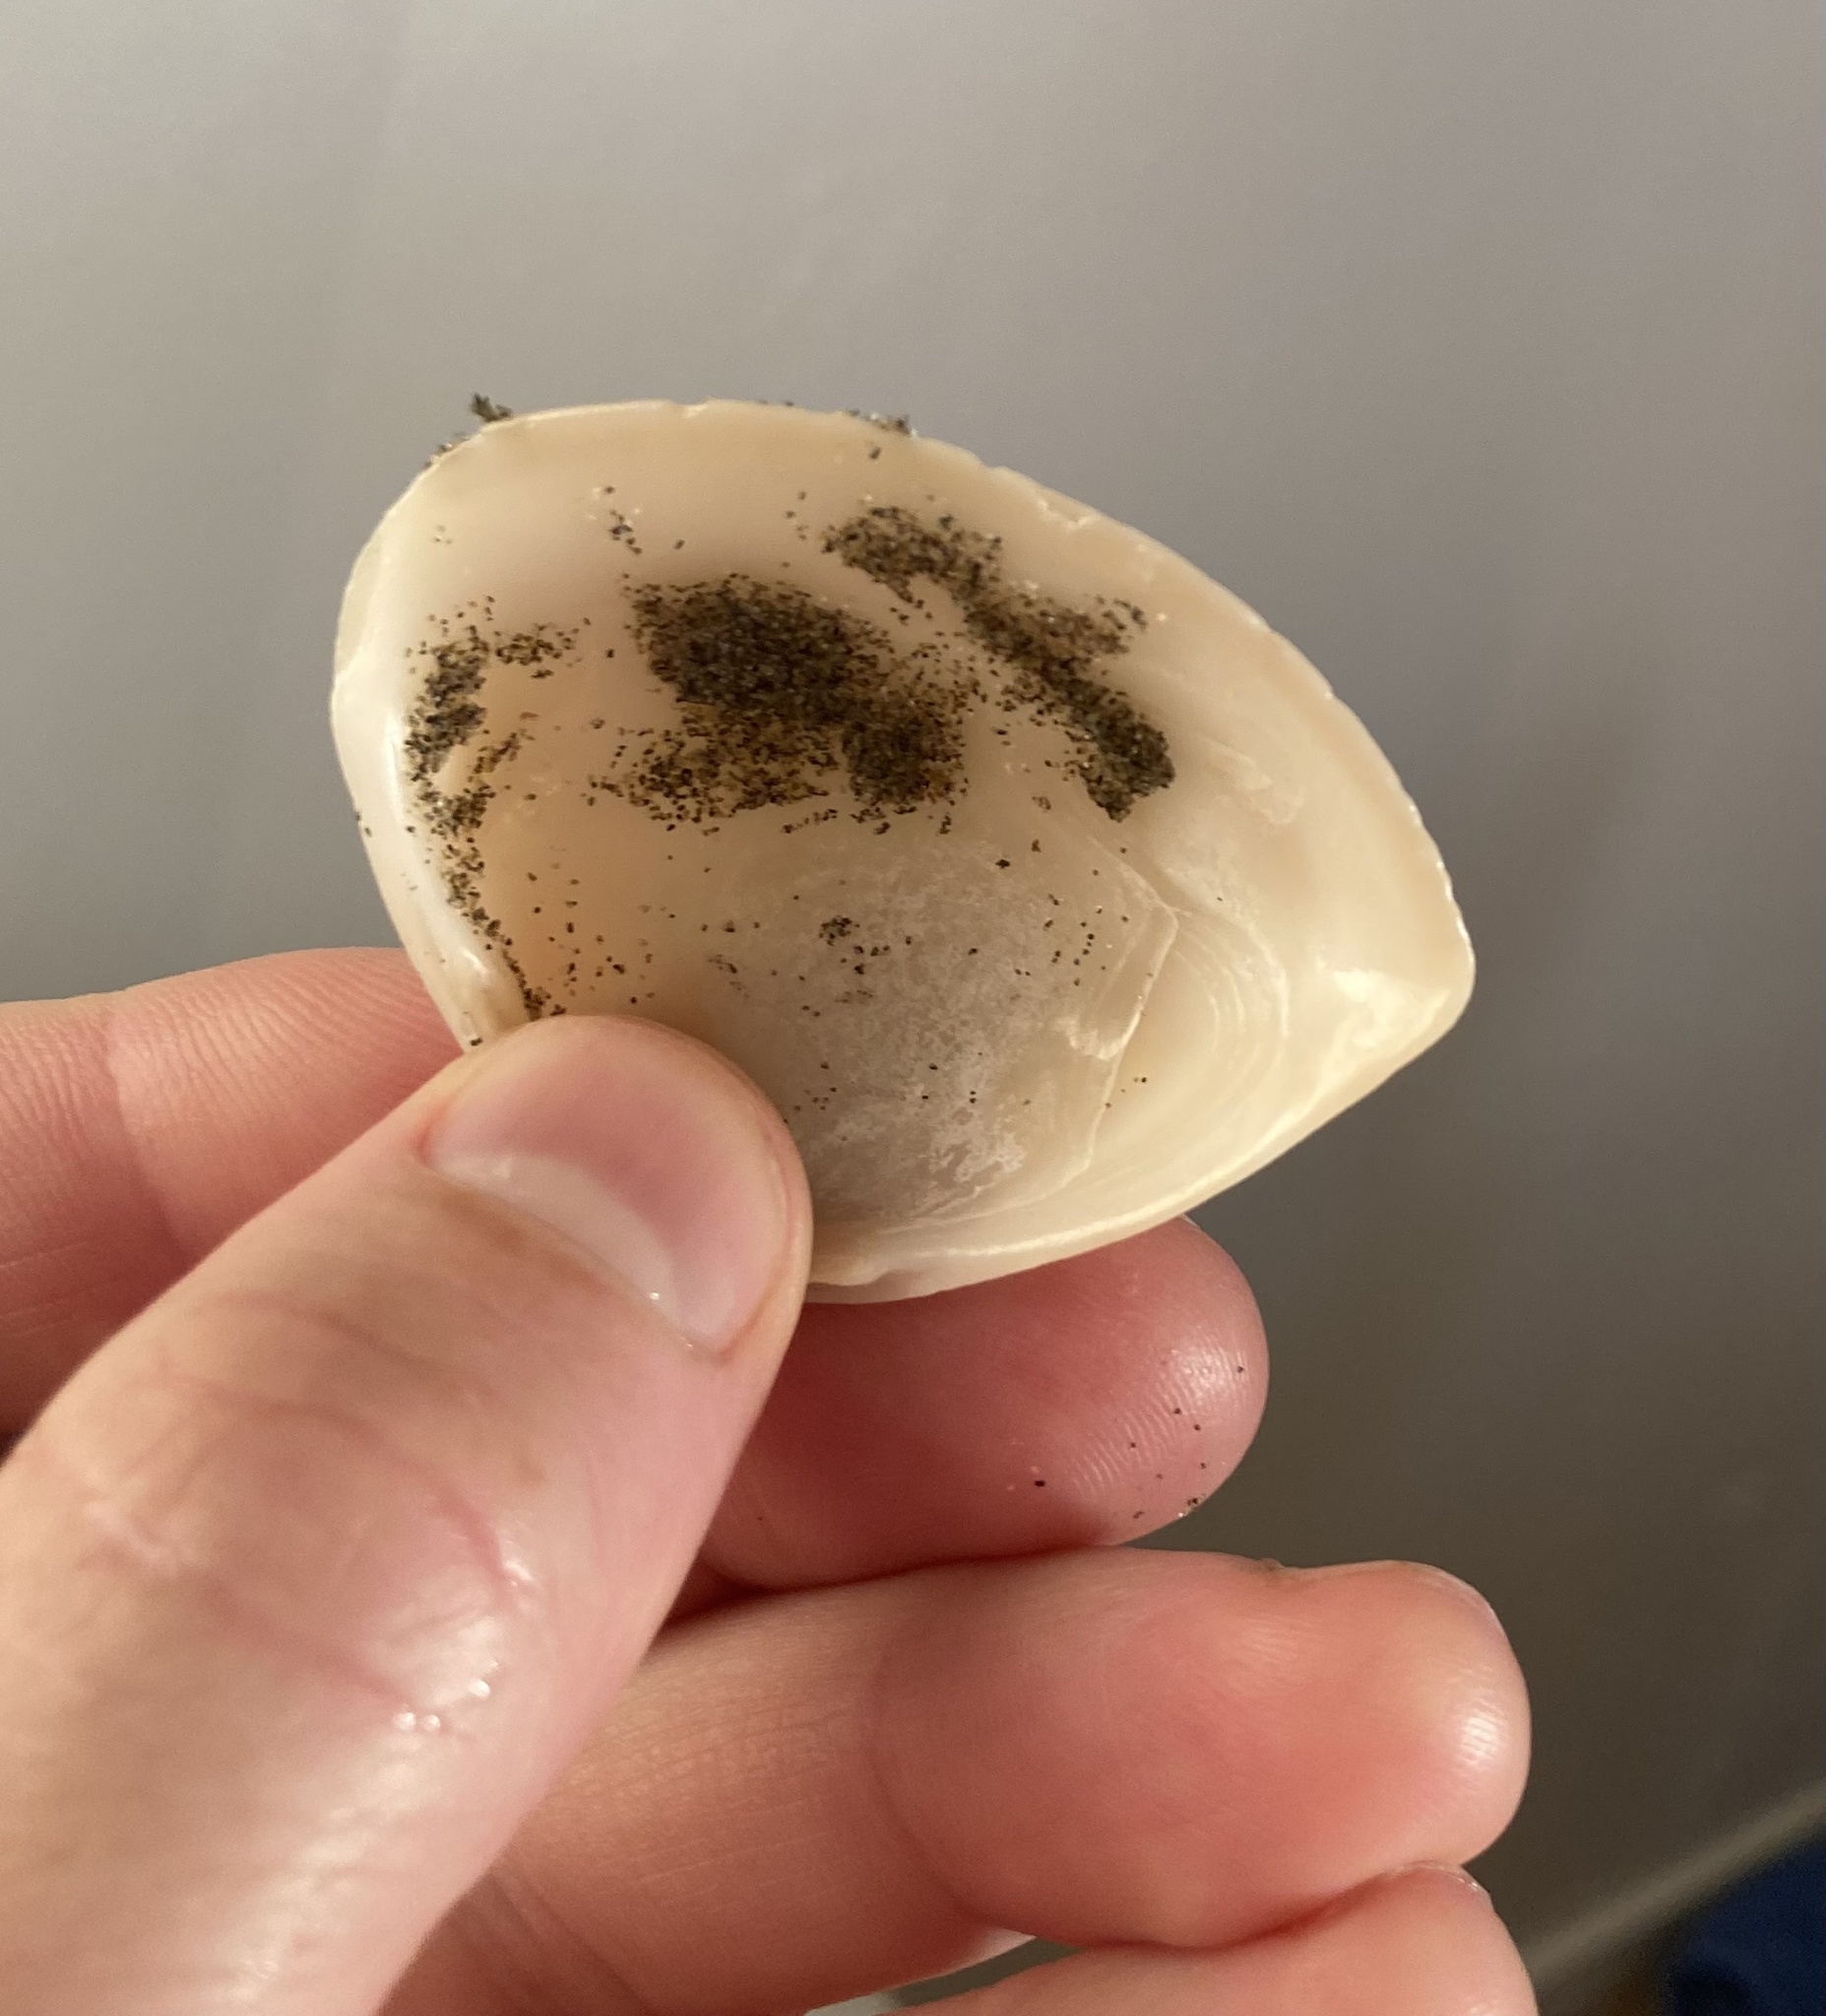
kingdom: Animalia
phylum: Mollusca
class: Bivalvia
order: Venerida
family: Mactridae
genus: Crassula
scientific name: Crassula aequilatera
